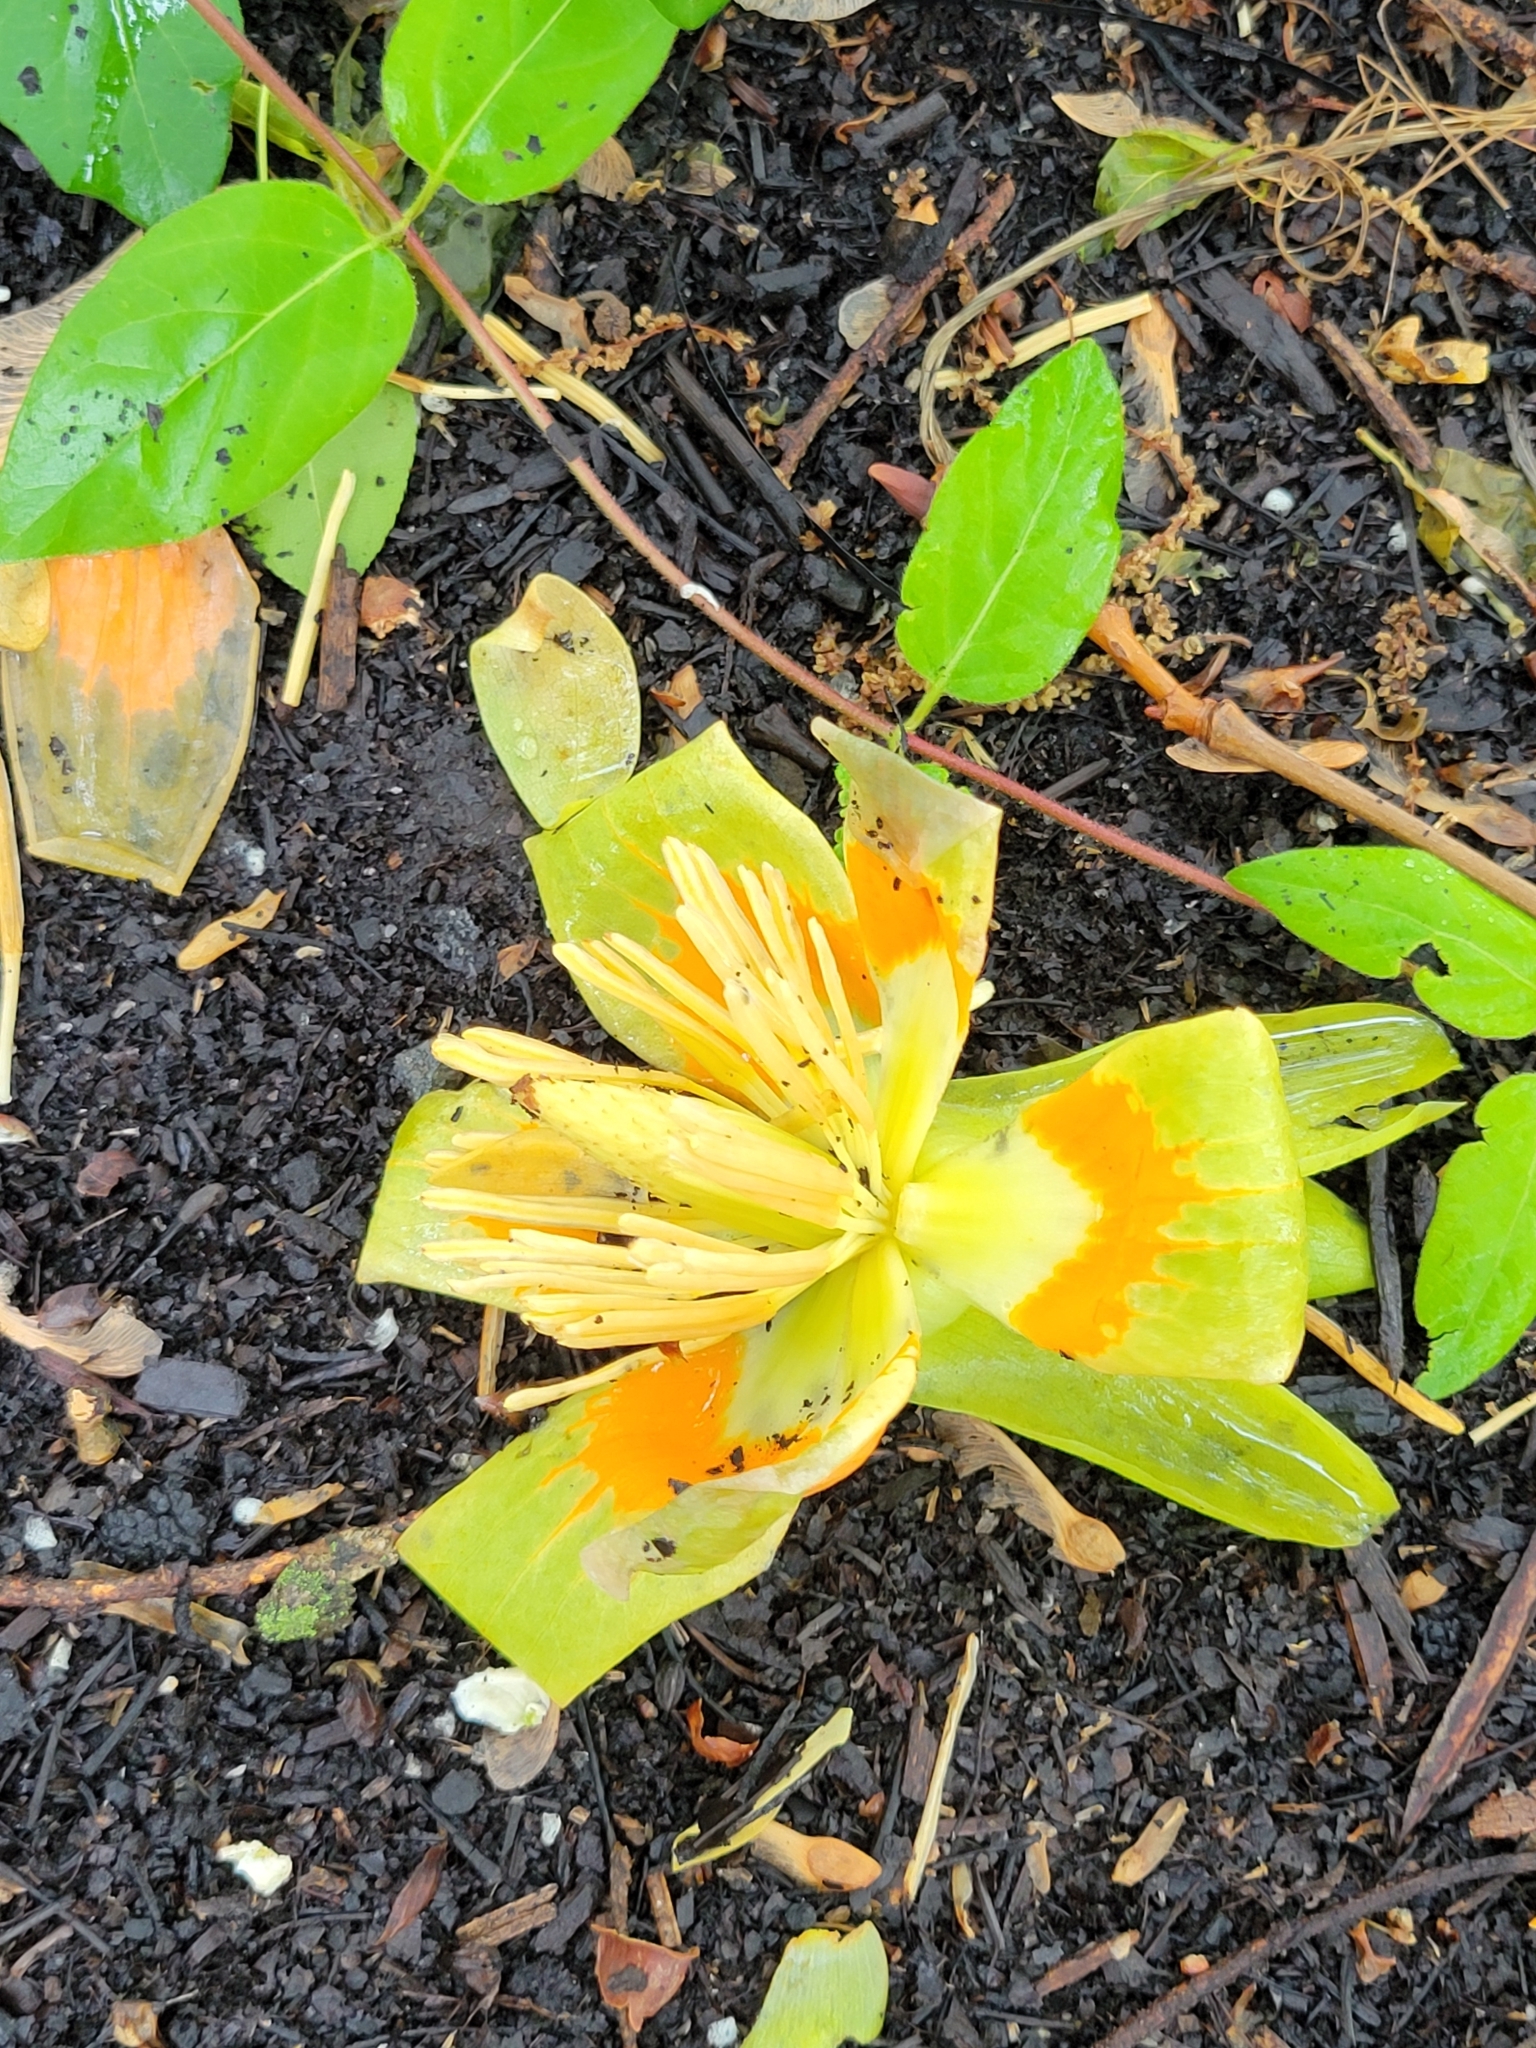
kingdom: Plantae
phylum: Tracheophyta
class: Magnoliopsida
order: Magnoliales
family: Magnoliaceae
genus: Liriodendron
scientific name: Liriodendron tulipifera
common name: Tulip tree
